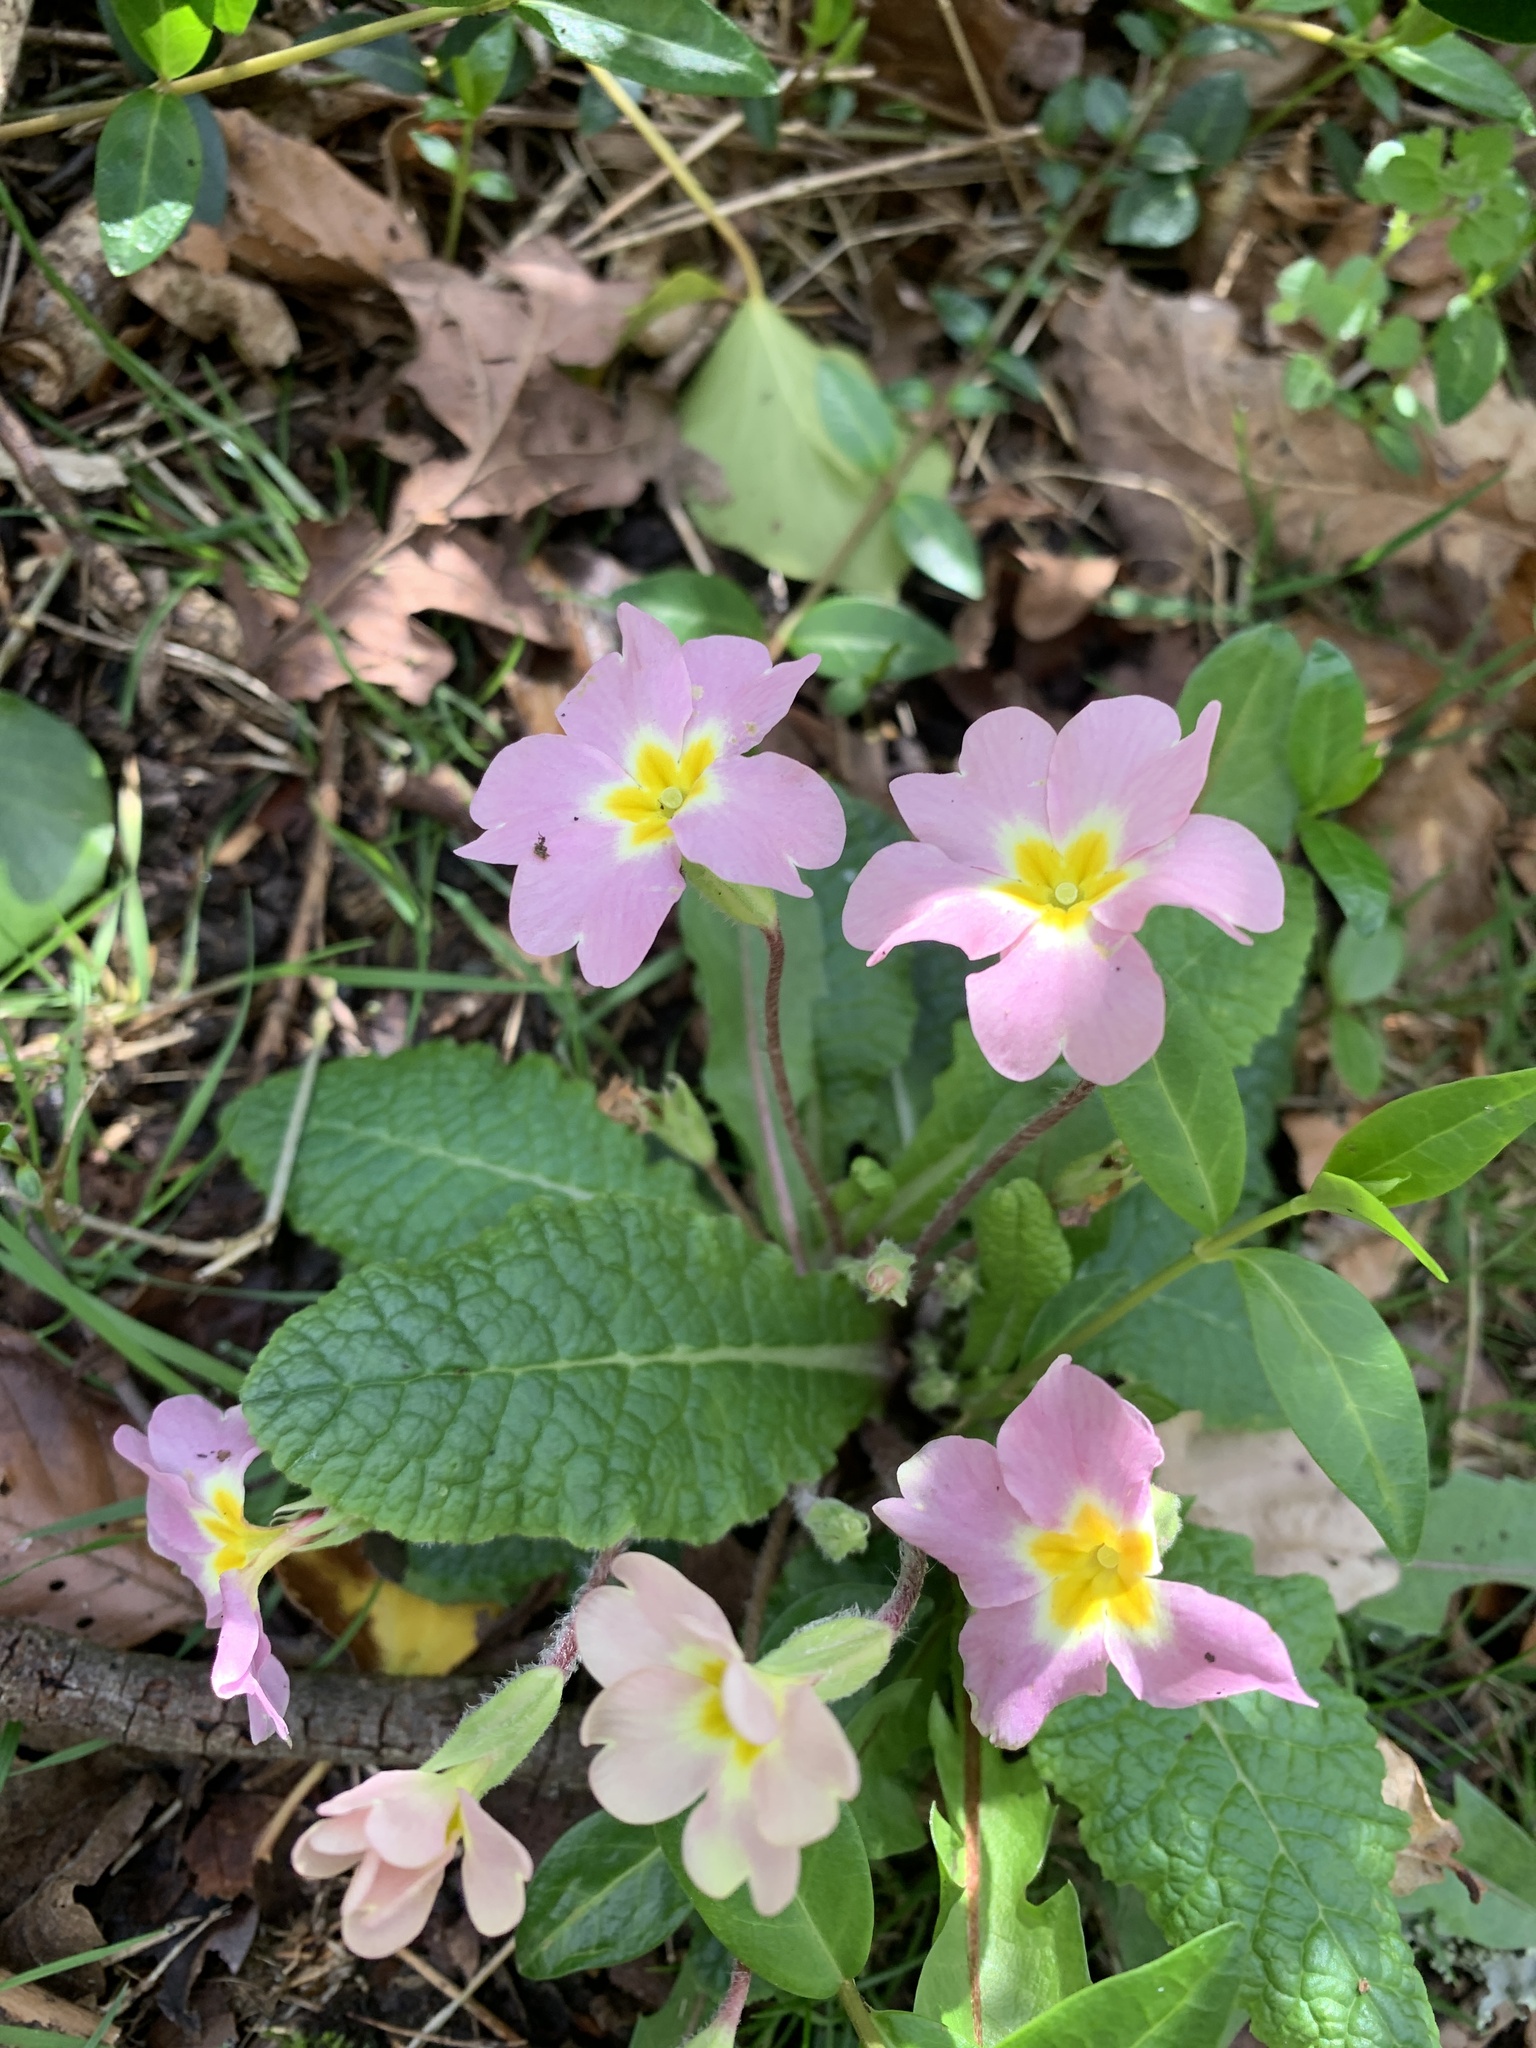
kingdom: Plantae
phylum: Tracheophyta
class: Magnoliopsida
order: Ericales
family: Primulaceae
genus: Primula
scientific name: Primula vulgaris
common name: Primrose
